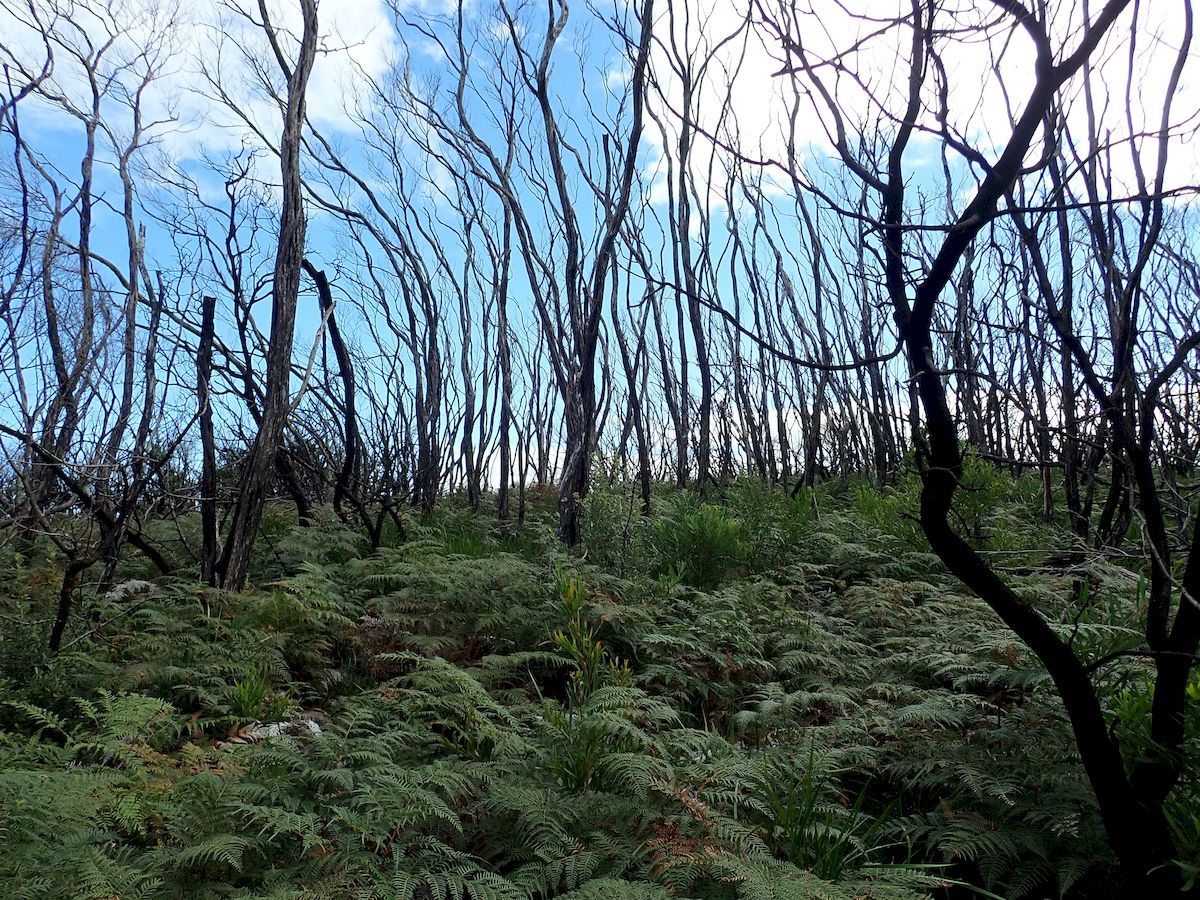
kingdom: Plantae
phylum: Tracheophyta
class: Polypodiopsida
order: Polypodiales
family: Dennstaedtiaceae
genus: Pteridium
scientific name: Pteridium esculentum
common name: Bracken fern
